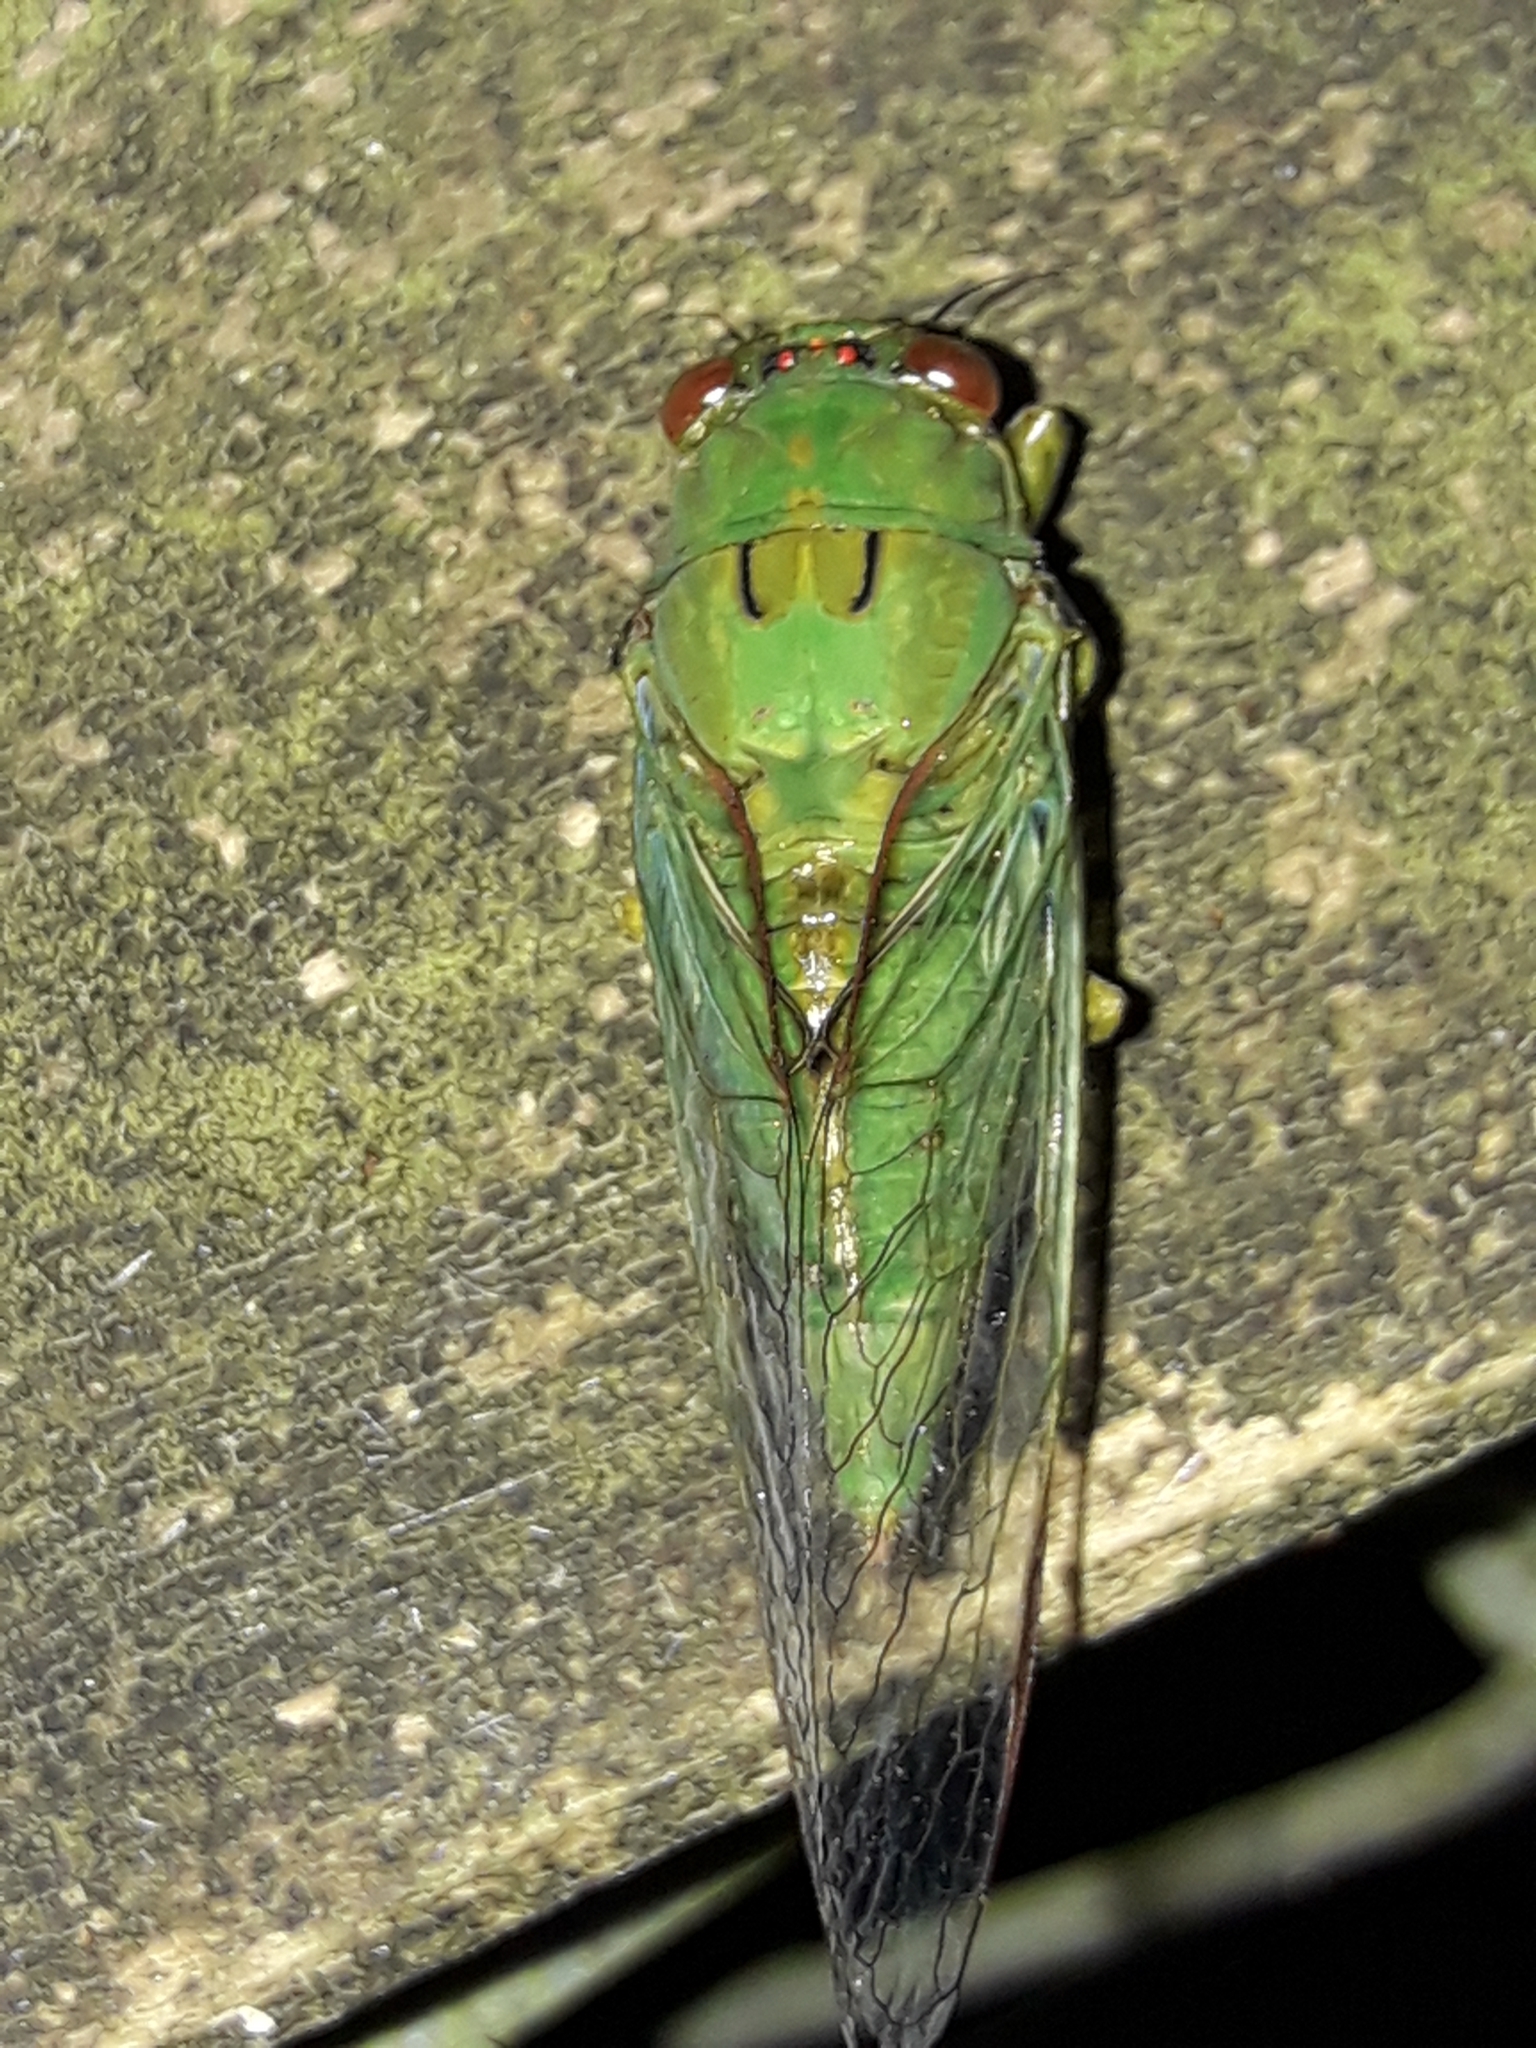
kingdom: Animalia
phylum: Arthropoda
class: Insecta
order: Hemiptera
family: Cicadidae
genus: Kikihia
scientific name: Kikihia ochrina
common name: April green cicada
